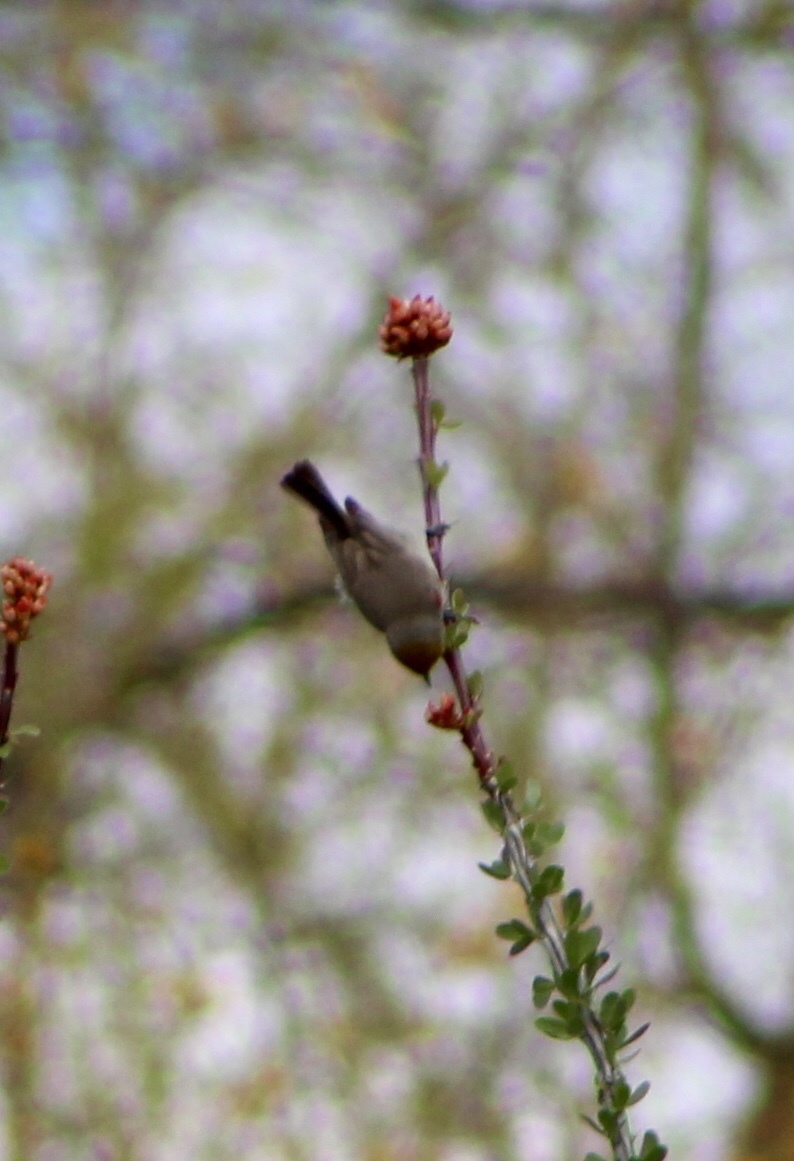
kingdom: Animalia
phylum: Chordata
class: Aves
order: Passeriformes
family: Remizidae
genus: Auriparus
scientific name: Auriparus flaviceps
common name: Verdin
